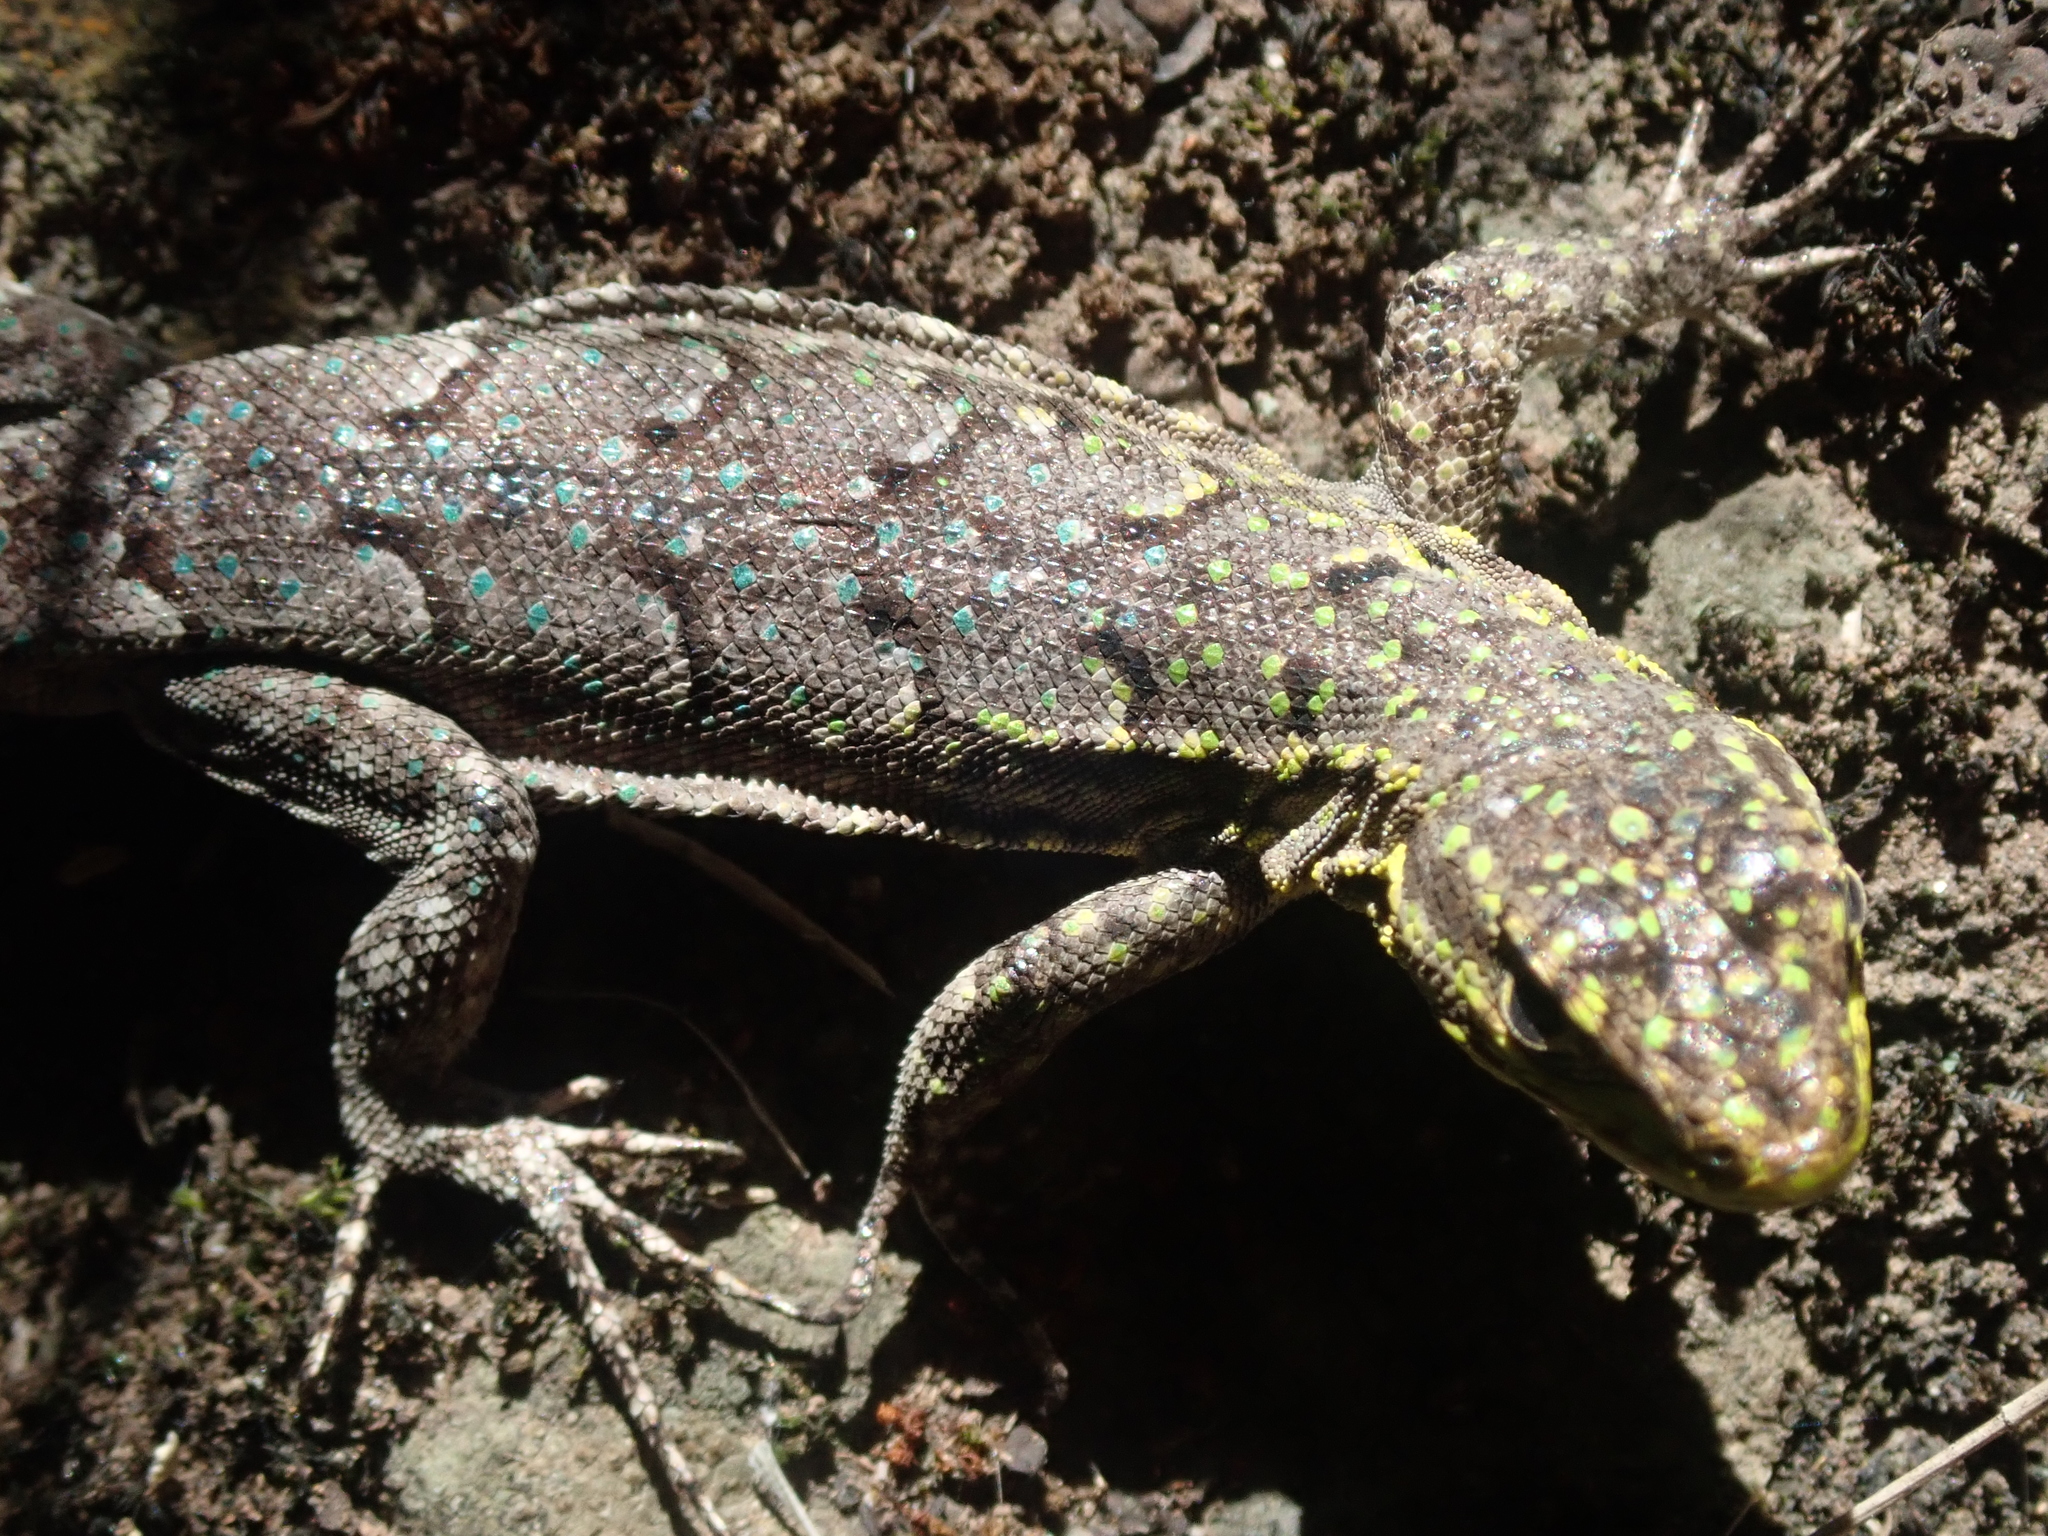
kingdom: Animalia
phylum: Chordata
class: Squamata
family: Liolaemidae
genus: Liolaemus
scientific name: Liolaemus tenuis
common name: Thin tree iguana
